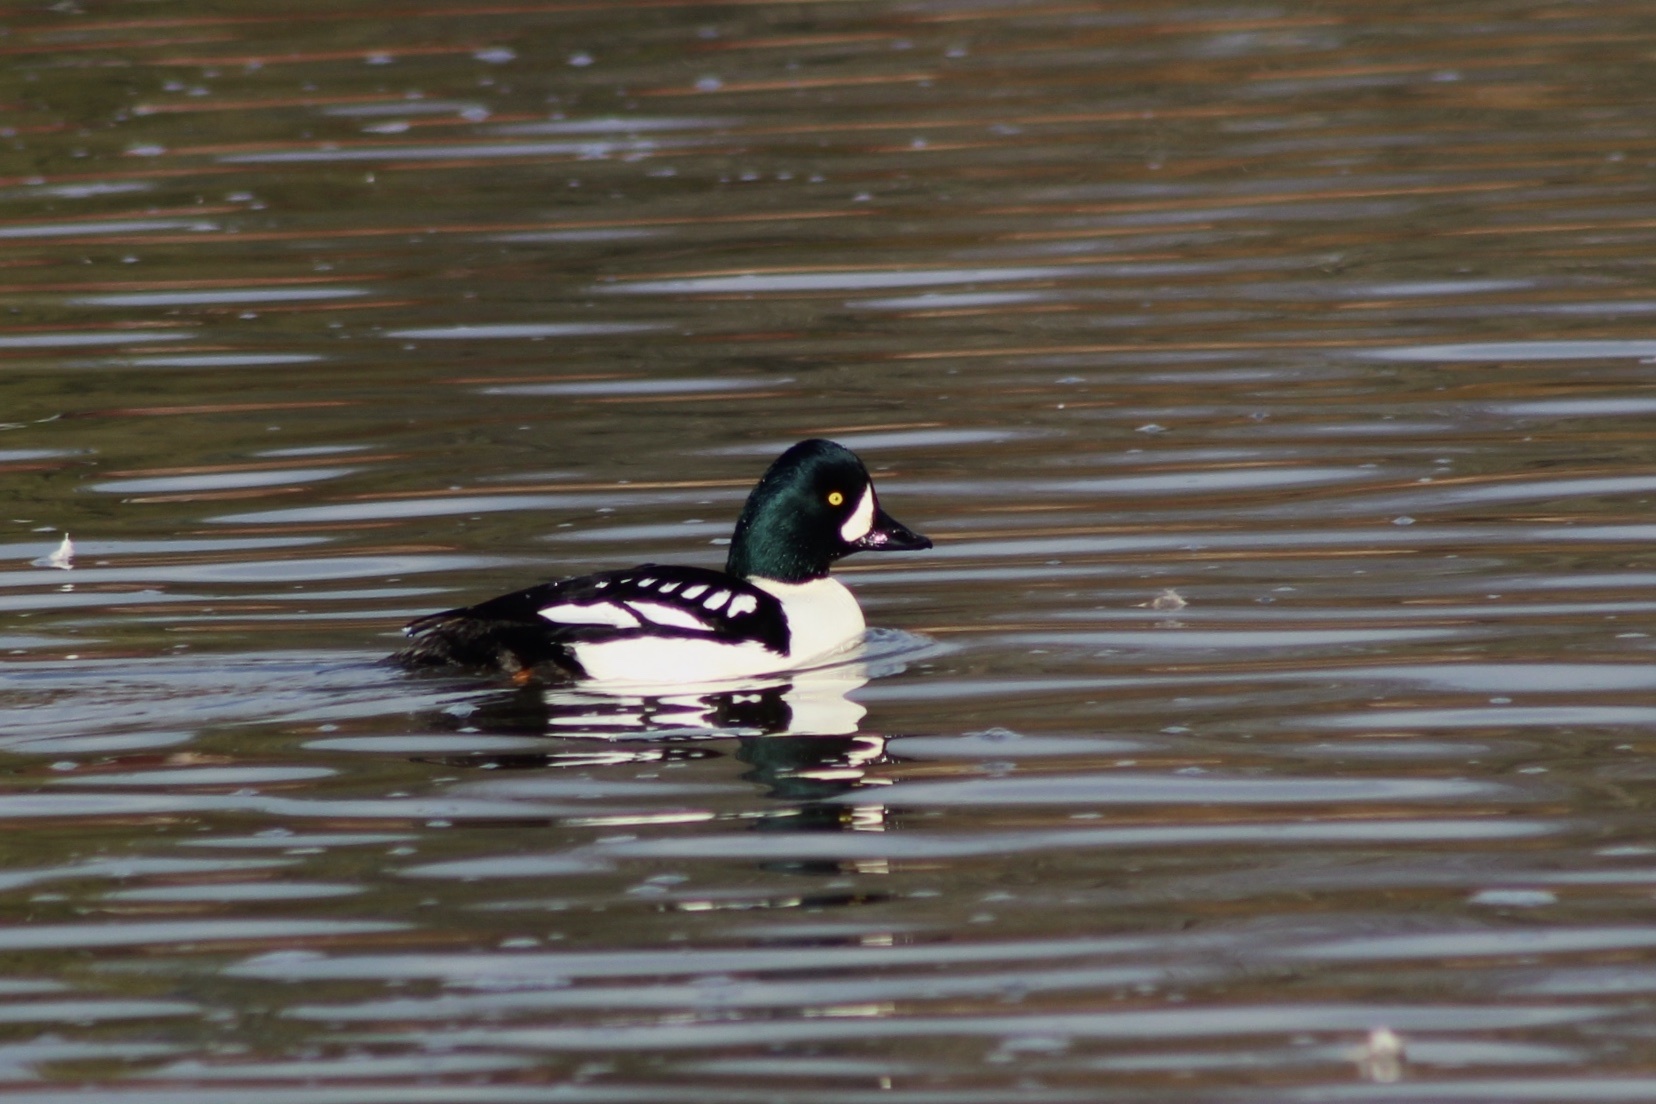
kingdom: Animalia
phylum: Chordata
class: Aves
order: Anseriformes
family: Anatidae
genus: Bucephala
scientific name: Bucephala islandica
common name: Barrow's goldeneye
